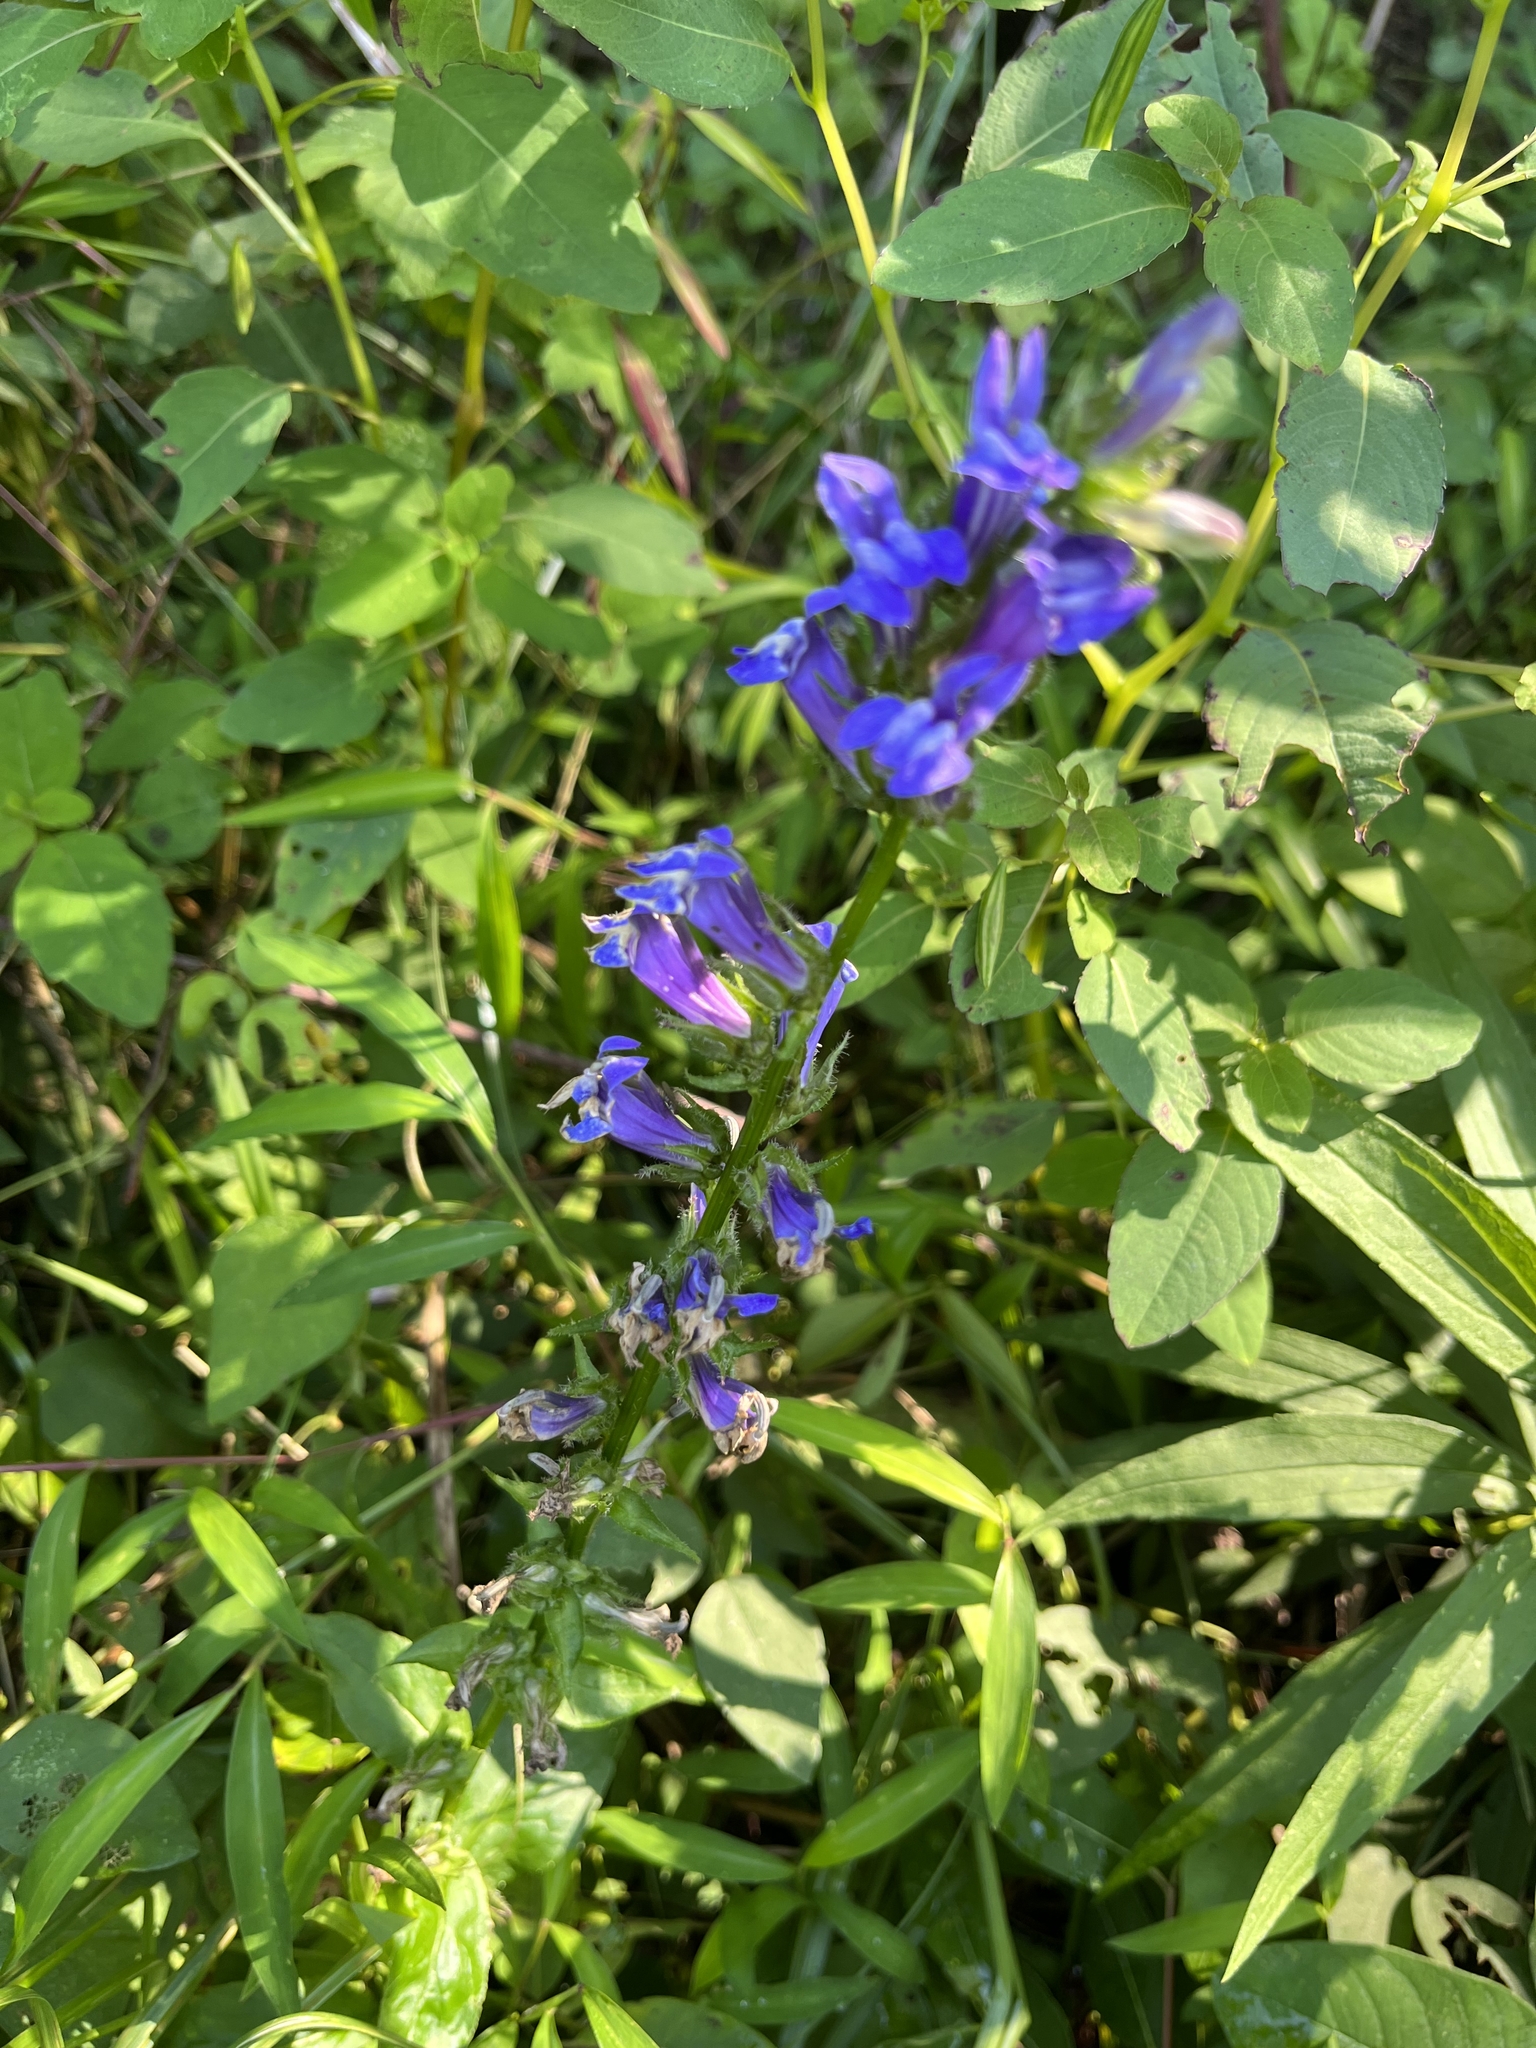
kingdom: Plantae
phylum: Tracheophyta
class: Magnoliopsida
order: Asterales
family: Campanulaceae
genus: Lobelia
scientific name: Lobelia siphilitica
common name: Great lobelia
